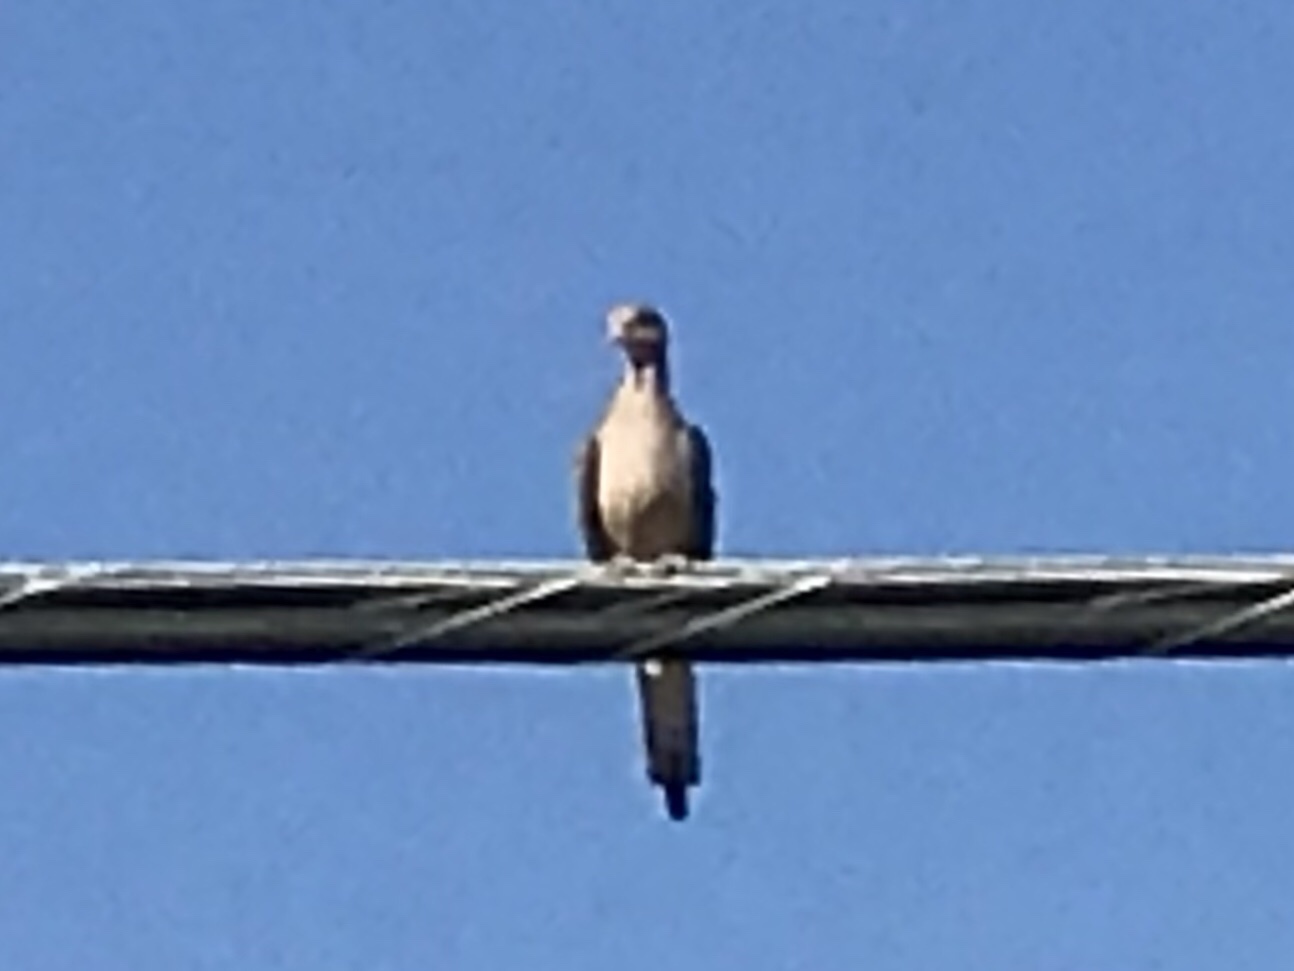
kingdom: Animalia
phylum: Chordata
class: Aves
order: Columbiformes
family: Columbidae
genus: Zenaida
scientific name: Zenaida macroura
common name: Mourning dove
